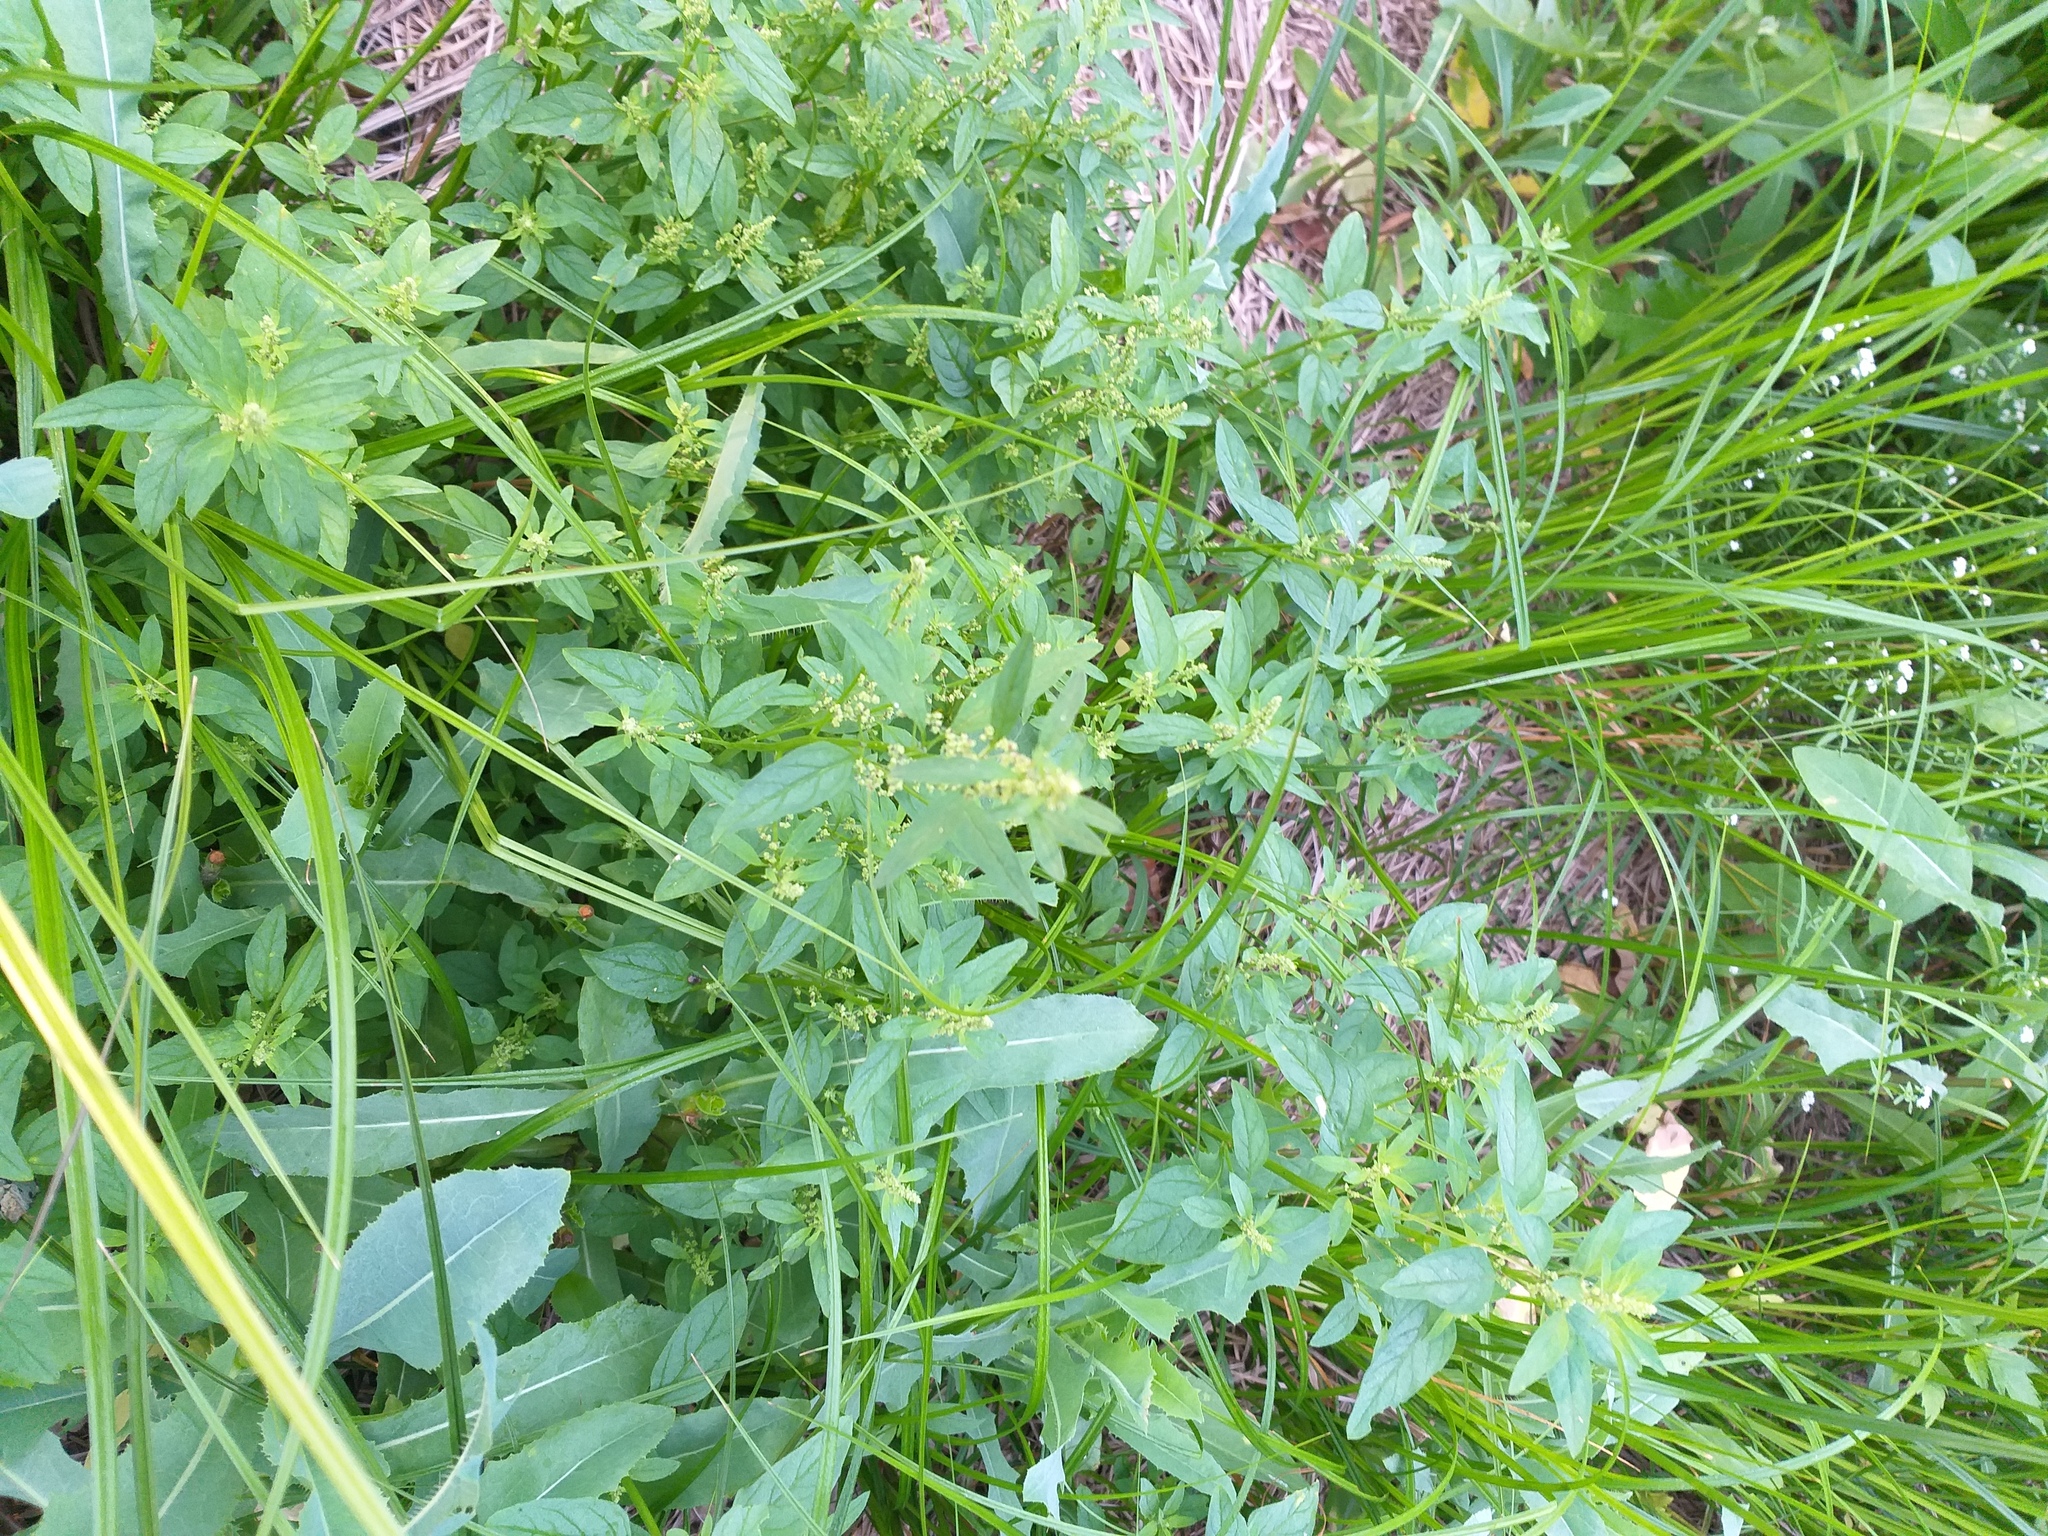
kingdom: Plantae
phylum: Tracheophyta
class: Magnoliopsida
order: Caryophyllales
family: Amaranthaceae
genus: Lipandra
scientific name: Lipandra polysperma
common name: Many-seed goosefoot
